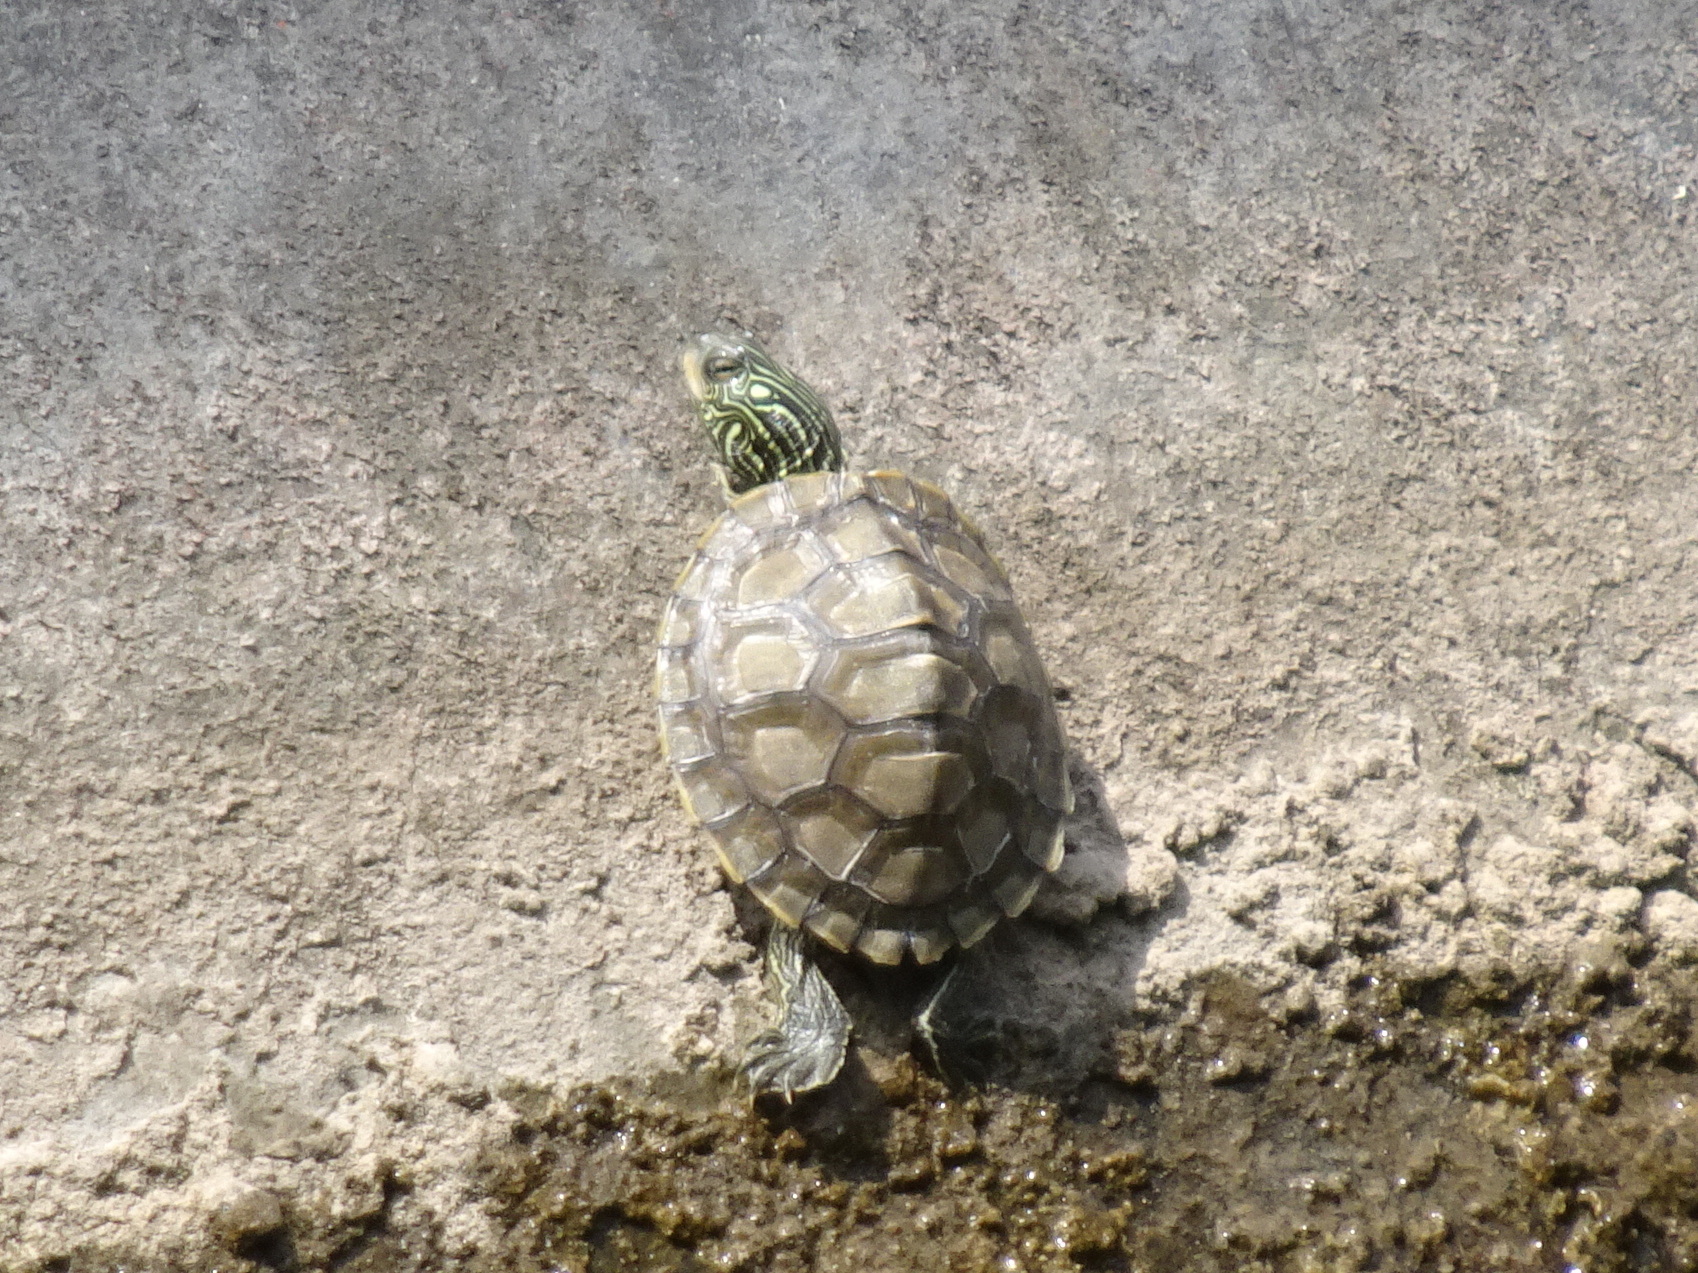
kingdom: Animalia
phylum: Chordata
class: Testudines
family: Emydidae
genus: Graptemys
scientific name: Graptemys geographica
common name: Common map turtle
